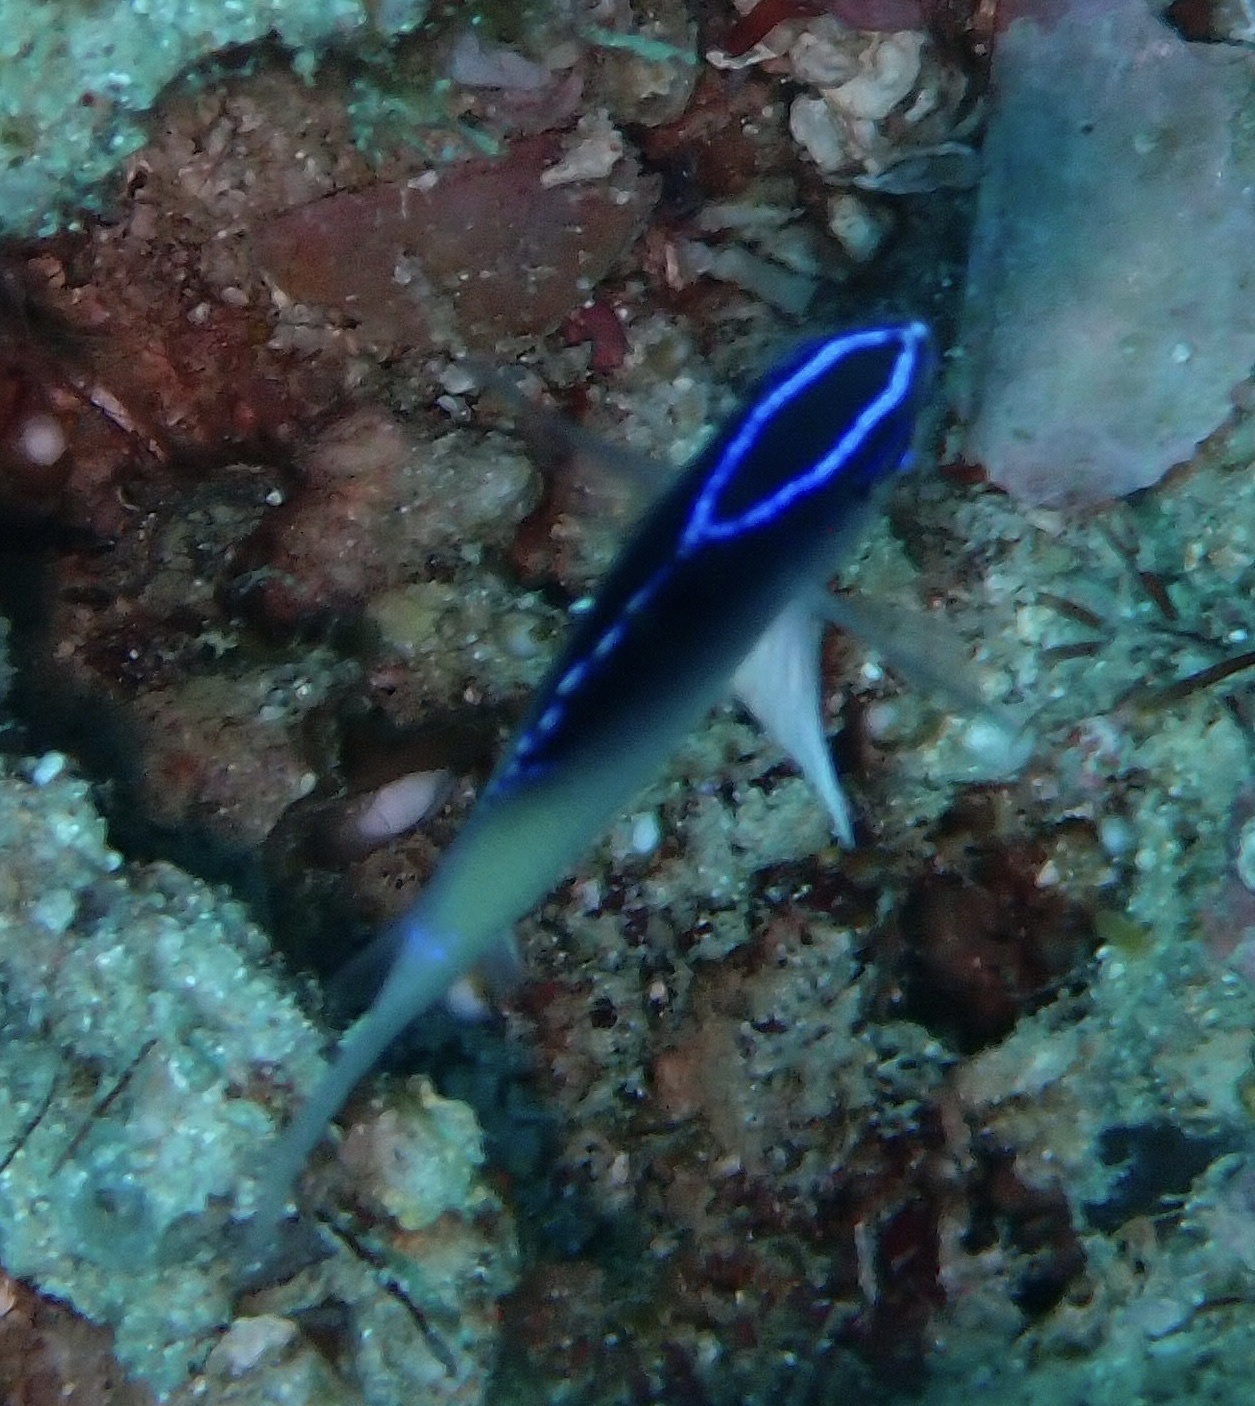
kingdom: Animalia
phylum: Chordata
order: Perciformes
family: Pomacentridae
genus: Chrysiptera
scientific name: Chrysiptera rollandi
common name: Rolland's demoiselle
